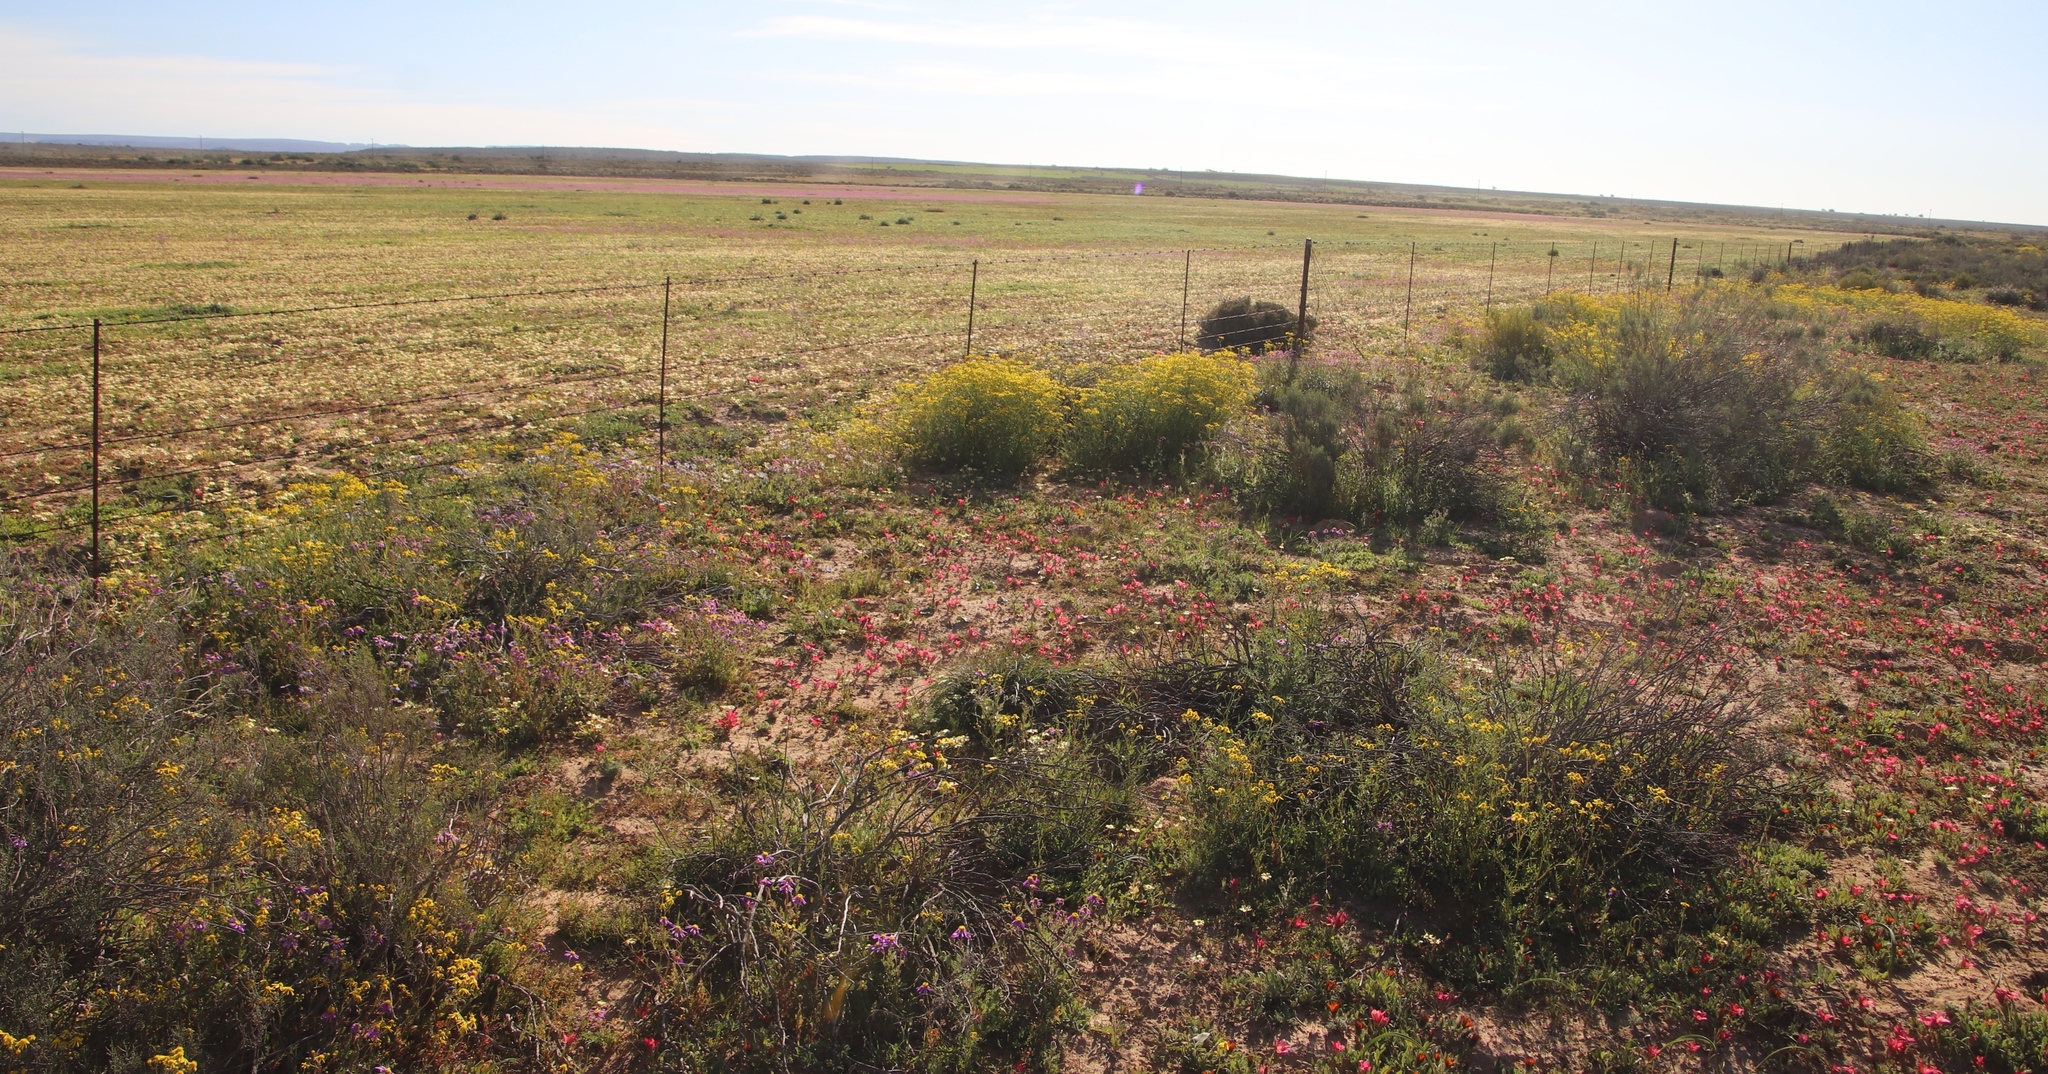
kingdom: Plantae
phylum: Tracheophyta
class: Magnoliopsida
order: Oxalidales
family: Oxalidaceae
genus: Oxalis
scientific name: Oxalis obtusa
